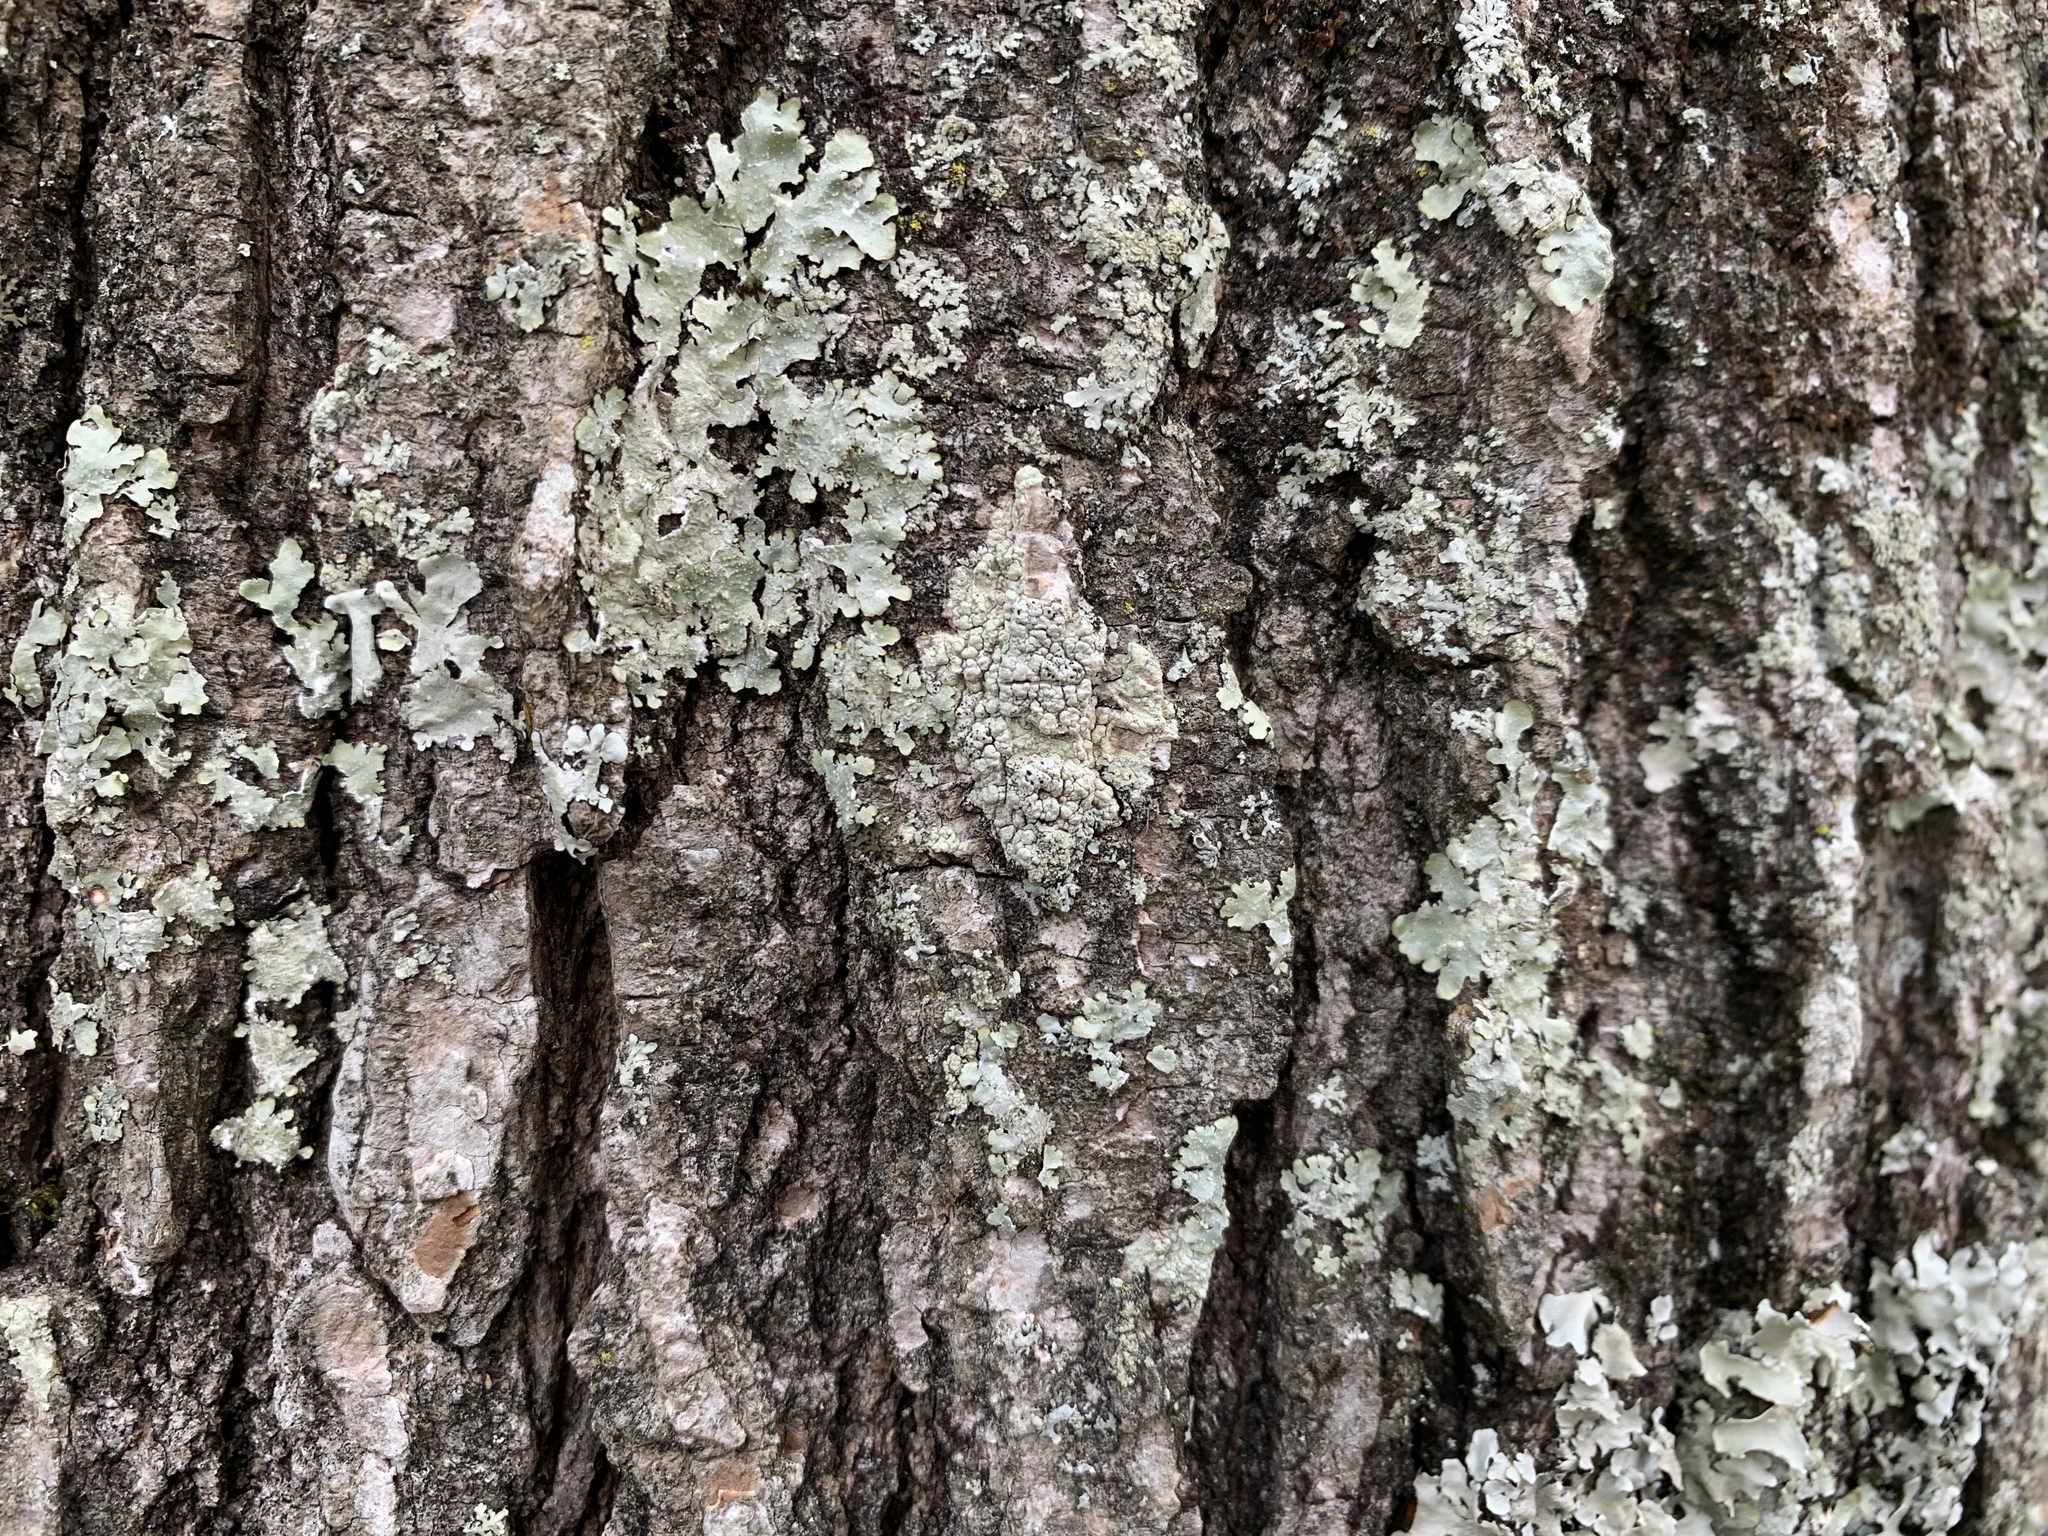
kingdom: Fungi
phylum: Ascomycota
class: Lecanoromycetes
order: Pertusariales
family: Pertusariaceae
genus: Pertusaria
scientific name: Pertusaria texana
